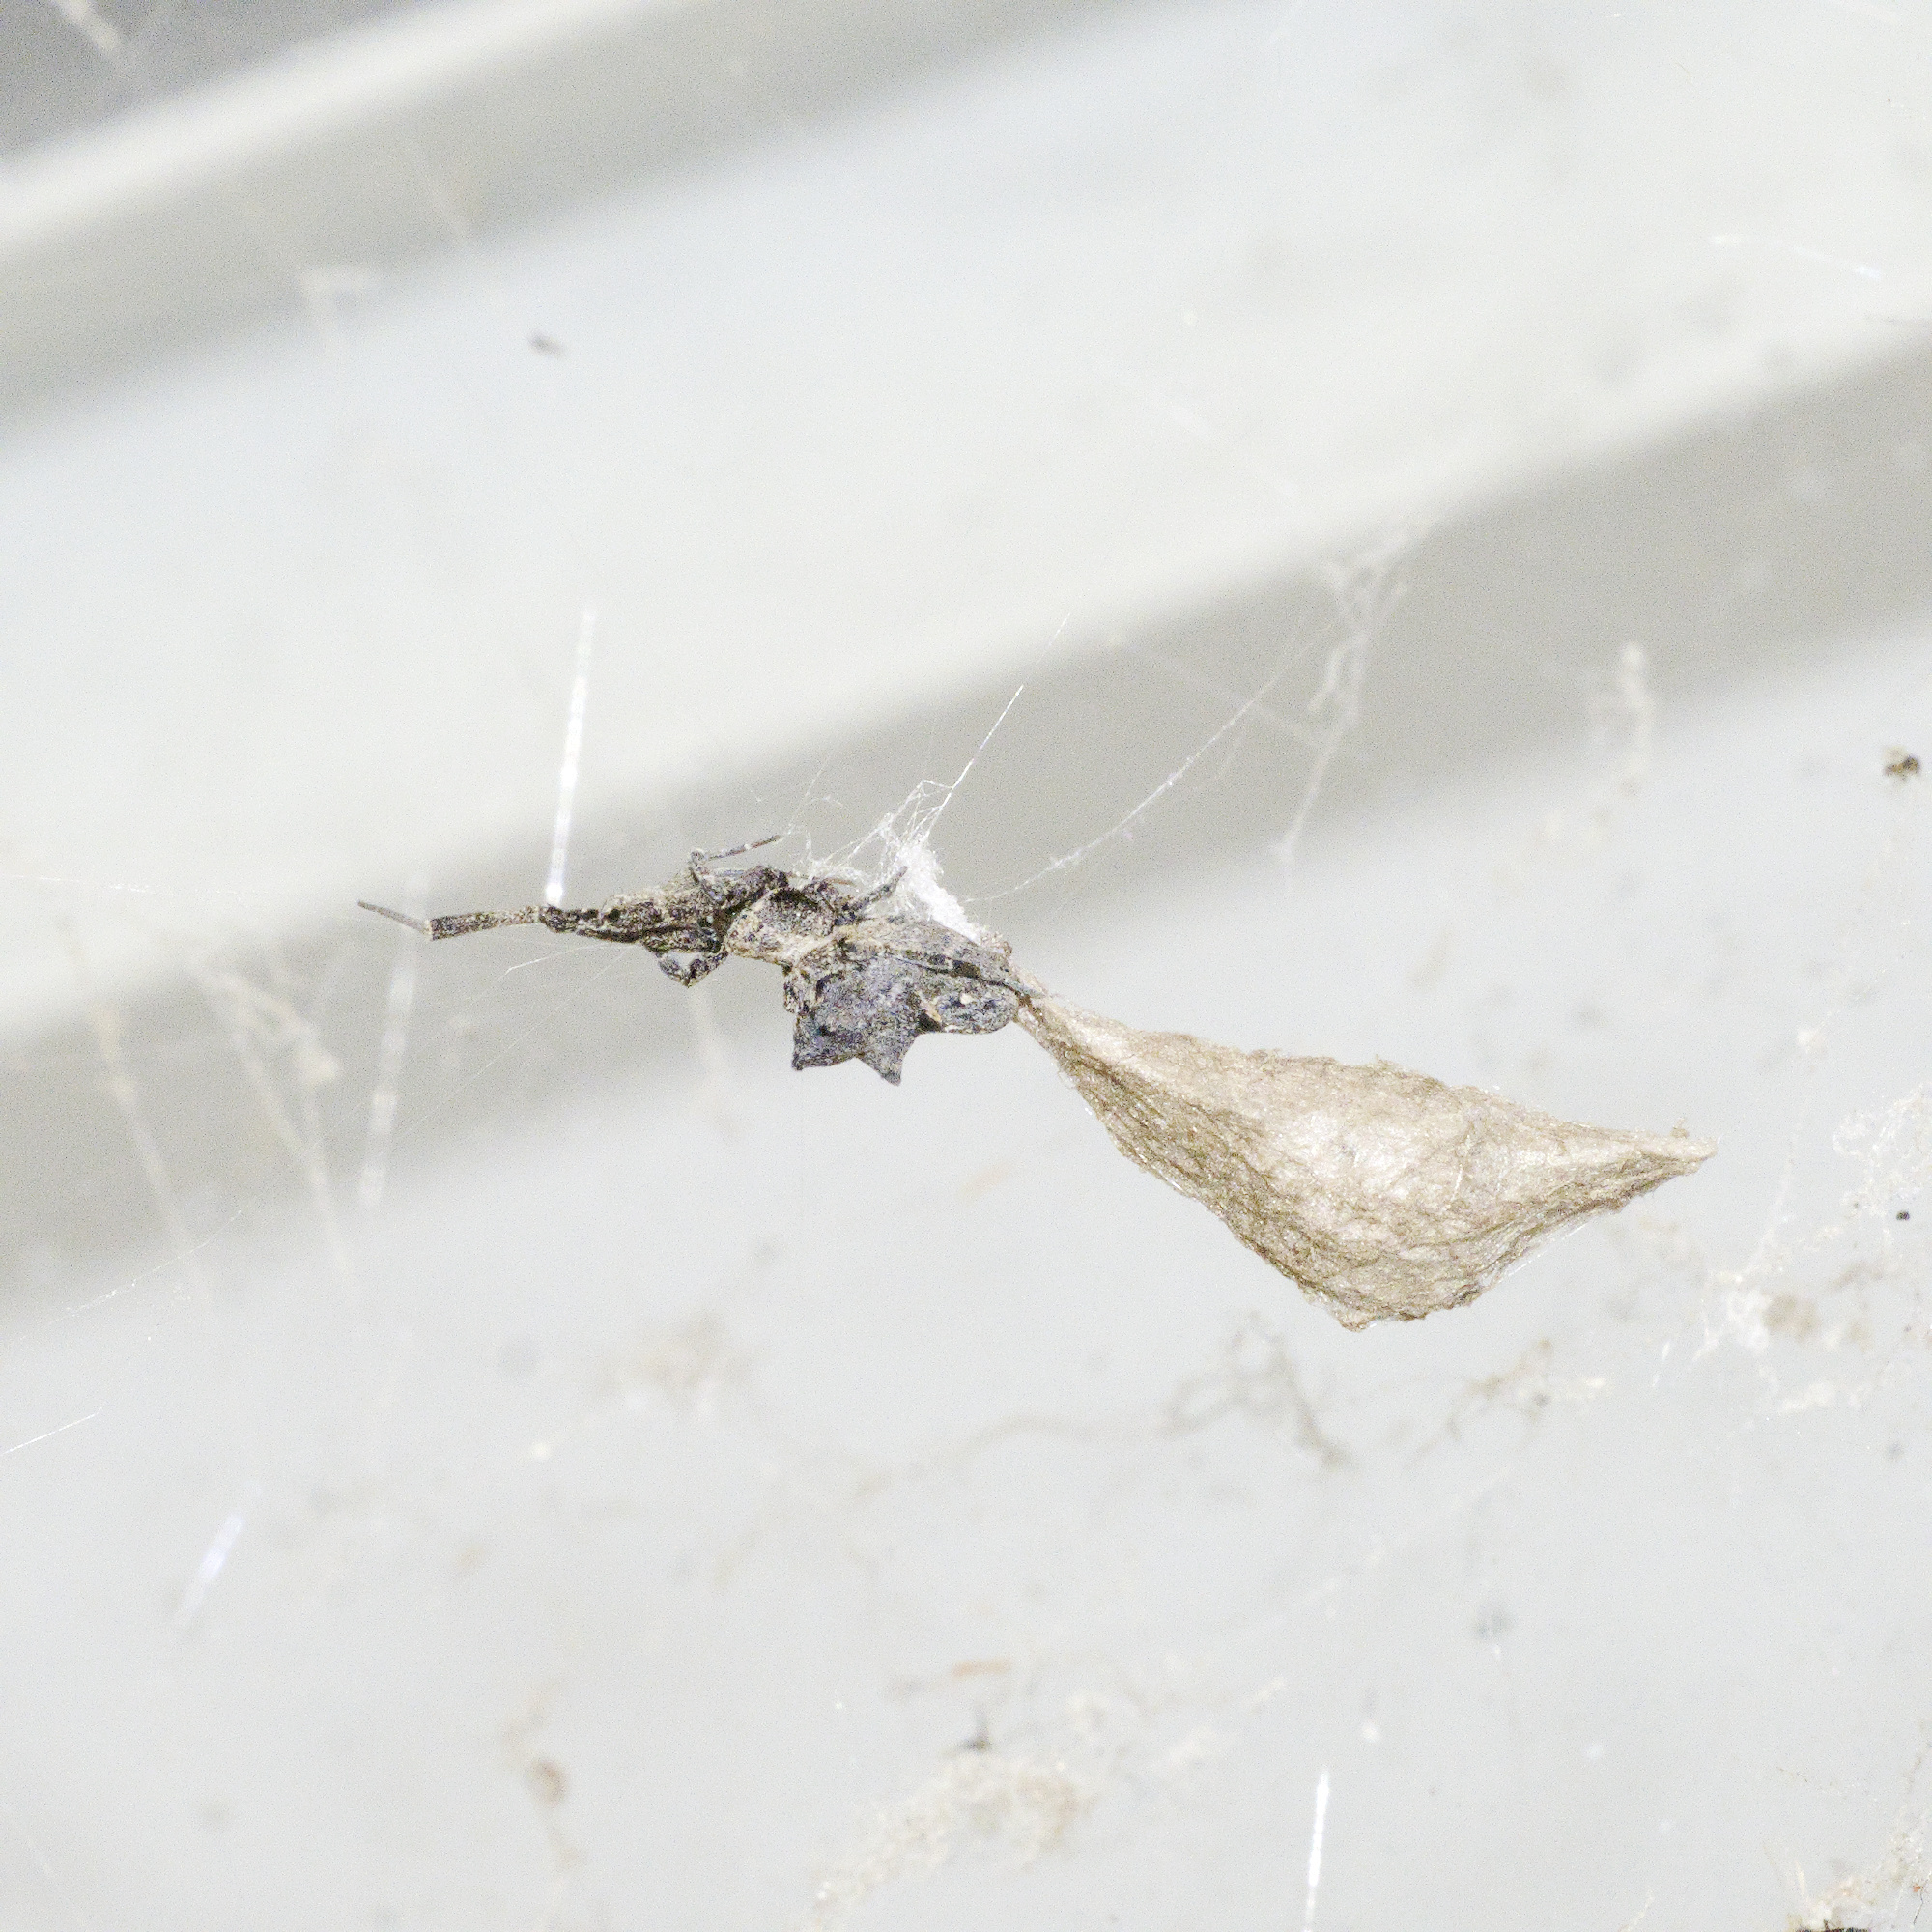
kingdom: Animalia
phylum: Arthropoda
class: Arachnida
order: Araneae
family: Uloboridae
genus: Philoponella
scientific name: Philoponella congregabilis
